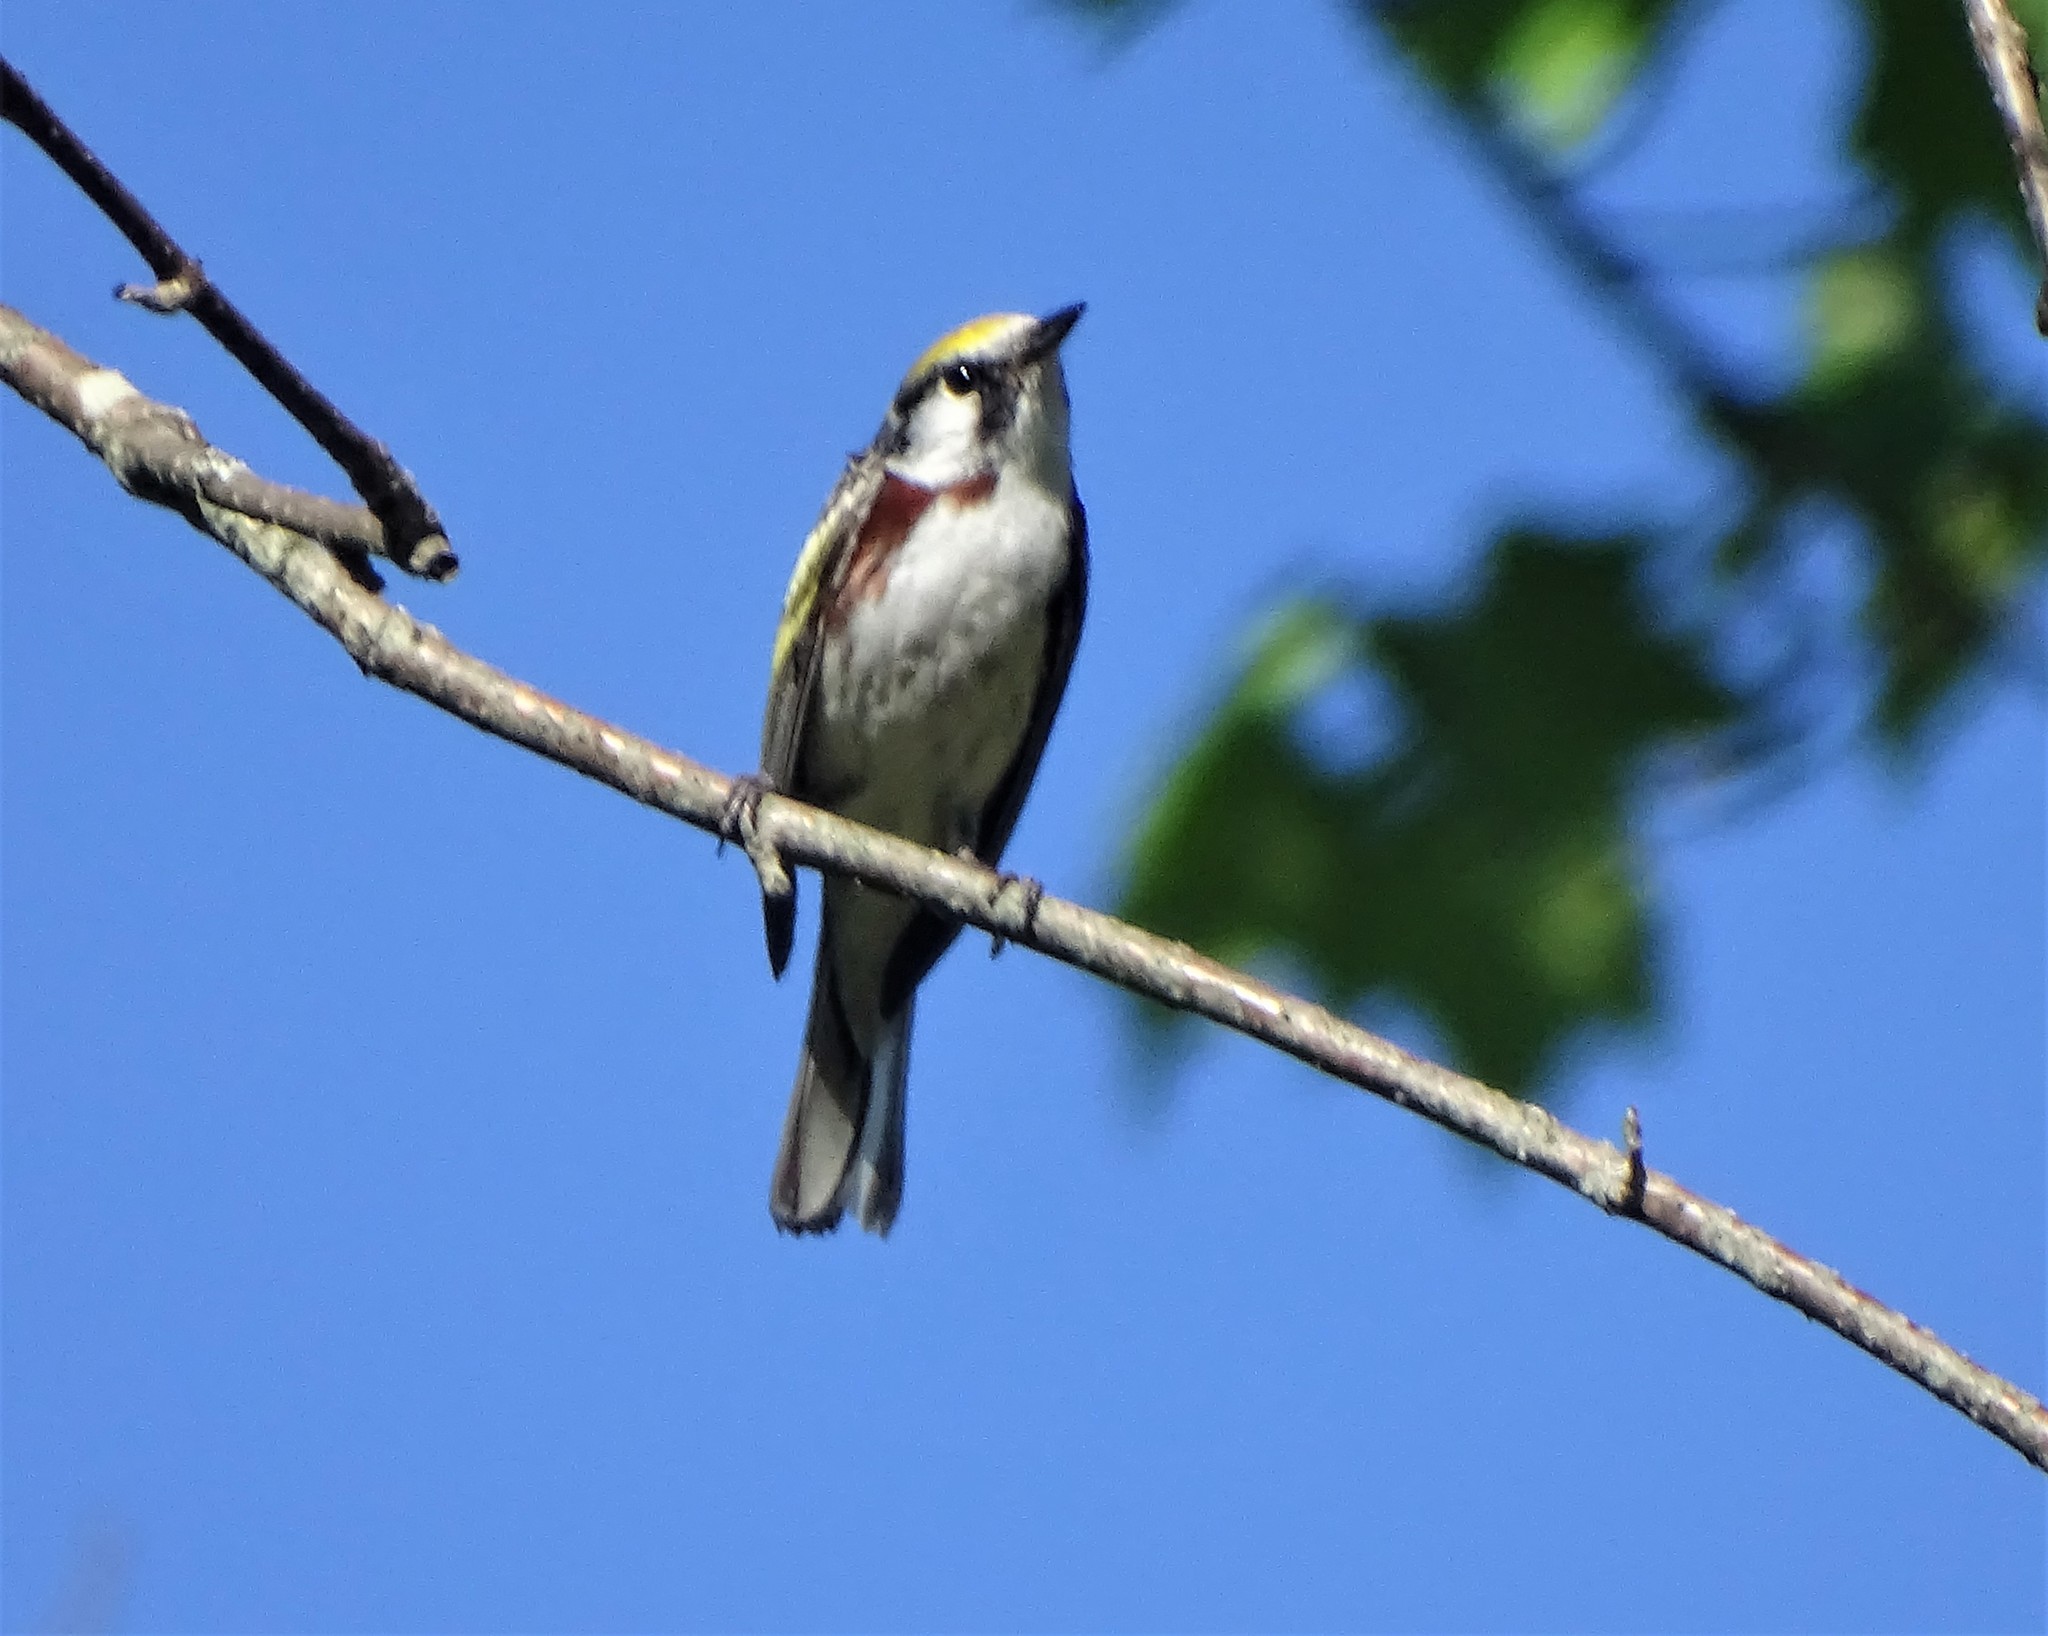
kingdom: Animalia
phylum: Chordata
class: Aves
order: Passeriformes
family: Parulidae
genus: Setophaga
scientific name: Setophaga pensylvanica
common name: Chestnut-sided warbler
